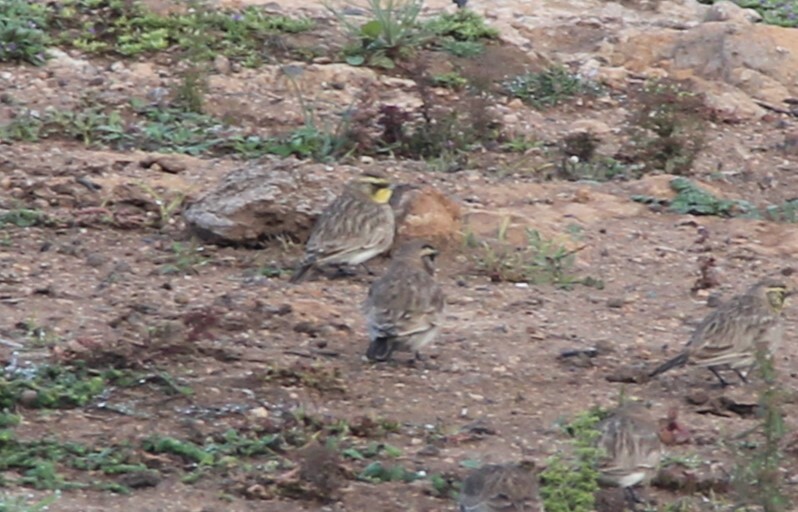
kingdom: Animalia
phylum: Chordata
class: Aves
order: Passeriformes
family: Alaudidae
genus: Eremophila
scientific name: Eremophila alpestris
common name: Horned lark
